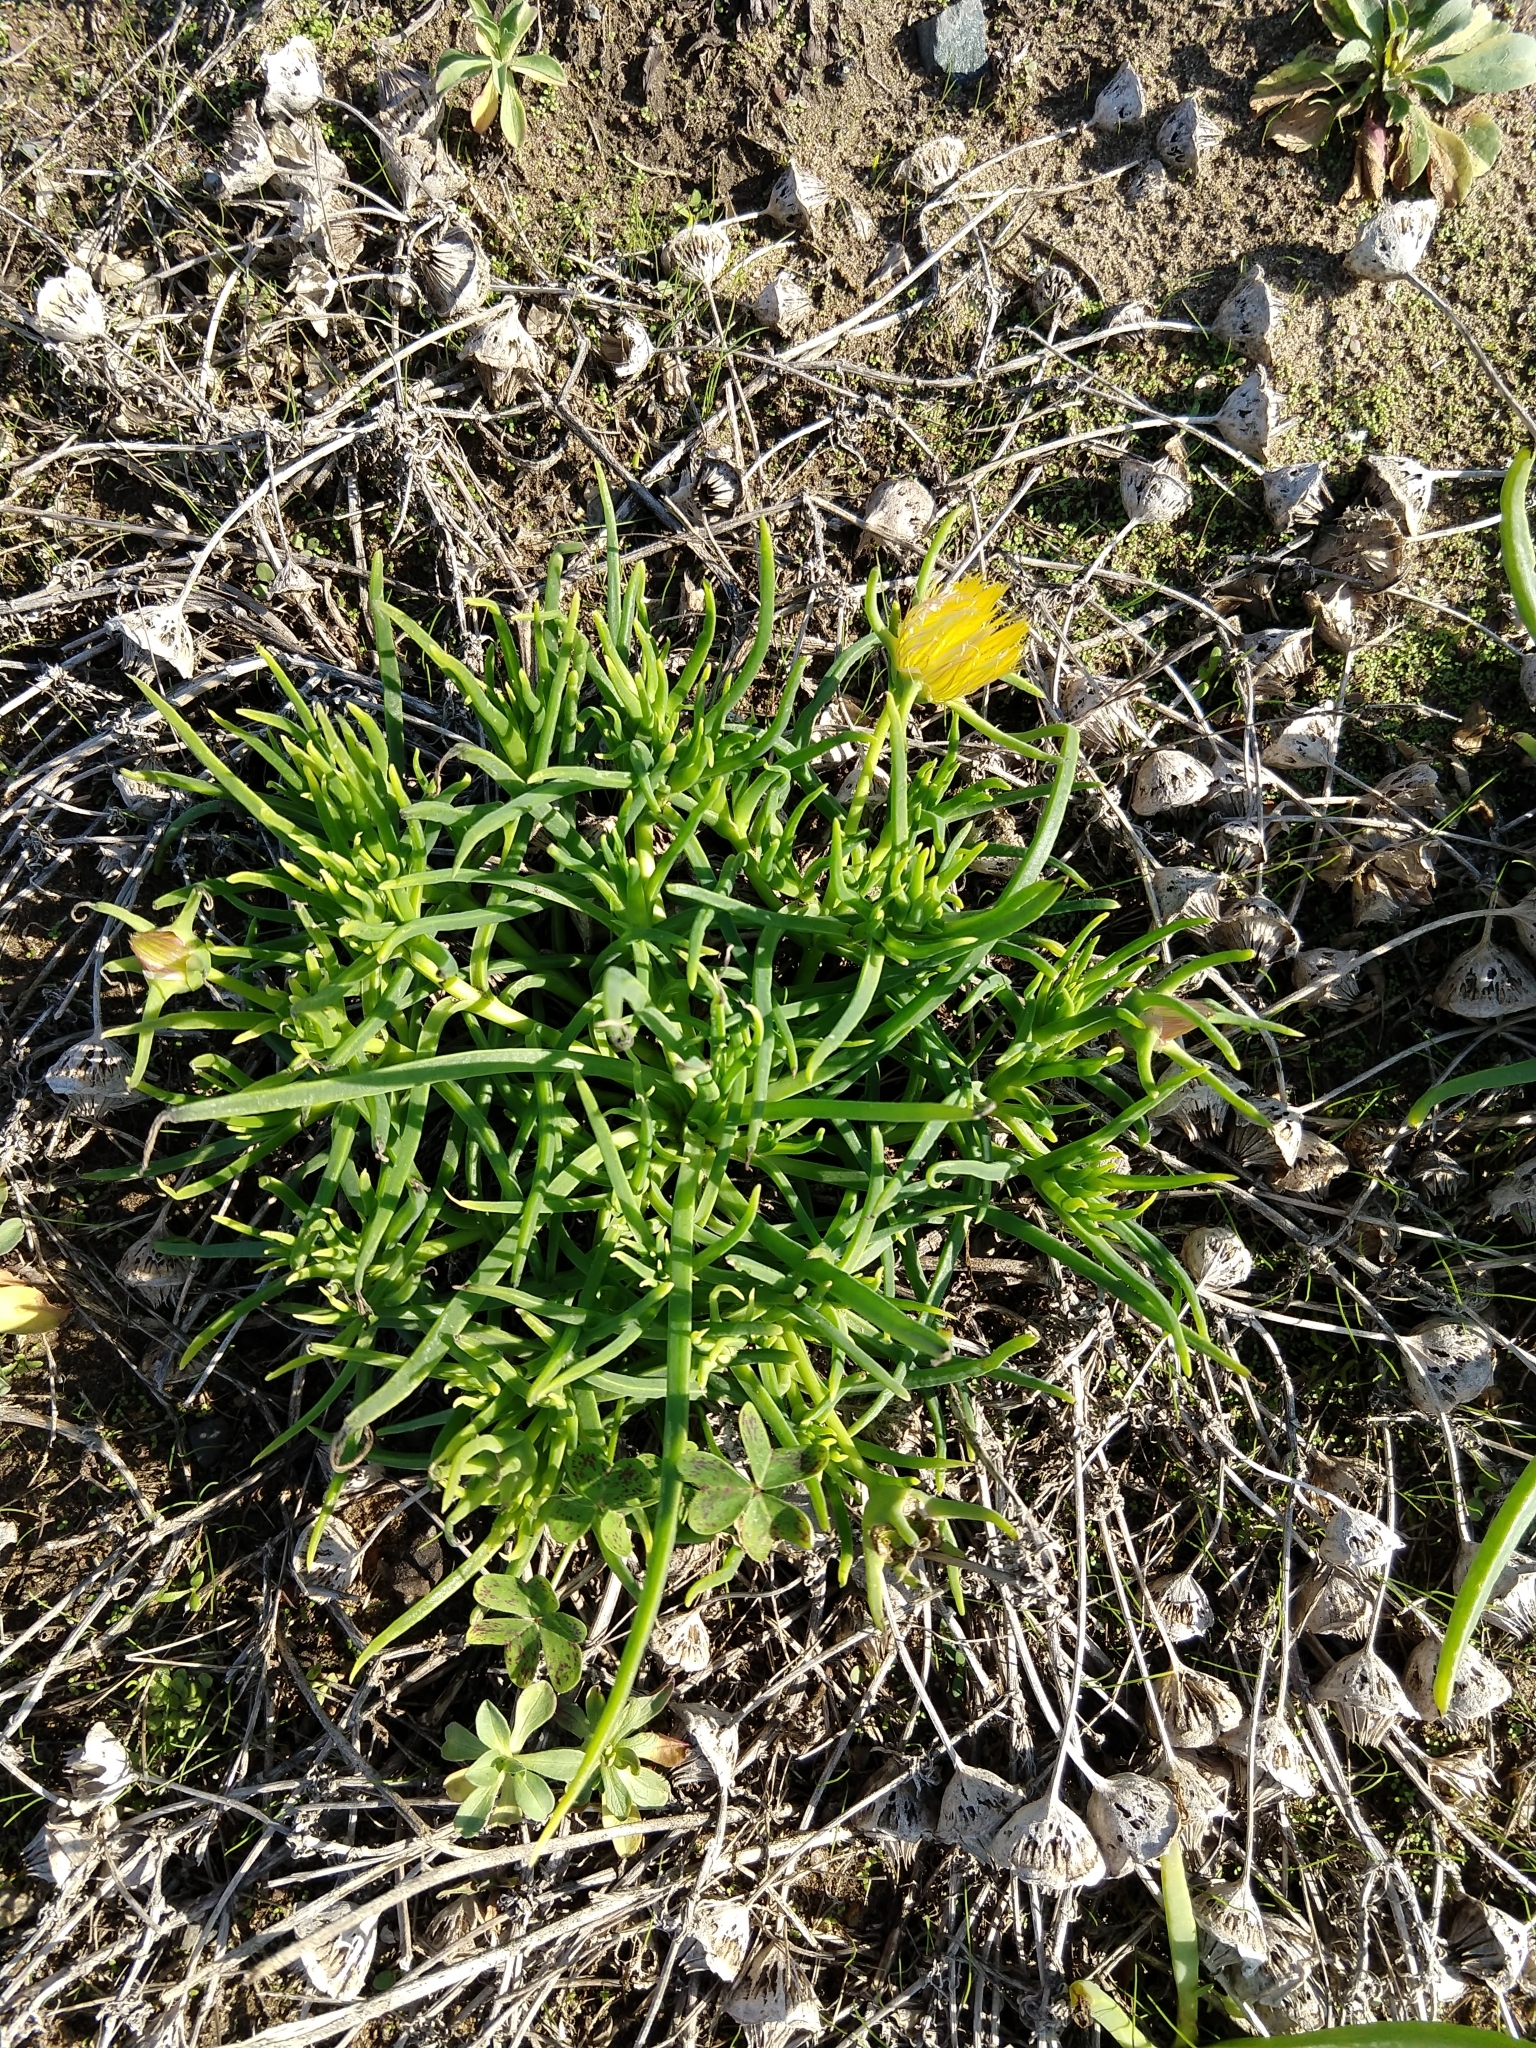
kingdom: Plantae
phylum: Tracheophyta
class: Magnoliopsida
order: Caryophyllales
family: Aizoaceae
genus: Conicosia
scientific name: Conicosia pugioniformis
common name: Narrow-leaved iceplant
